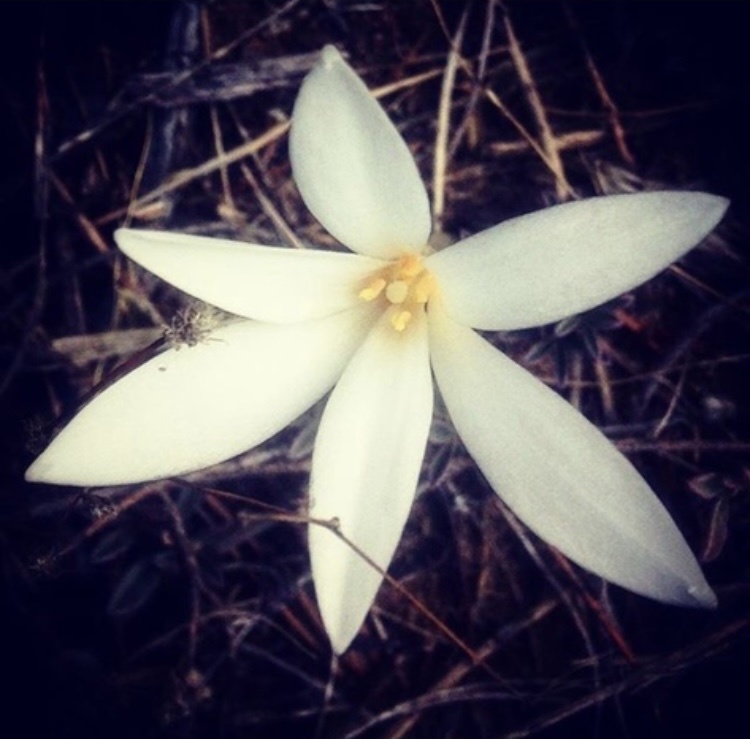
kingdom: Plantae
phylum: Tracheophyta
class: Liliopsida
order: Asparagales
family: Amaryllidaceae
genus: Apodolirion
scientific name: Apodolirion lanceolatum
